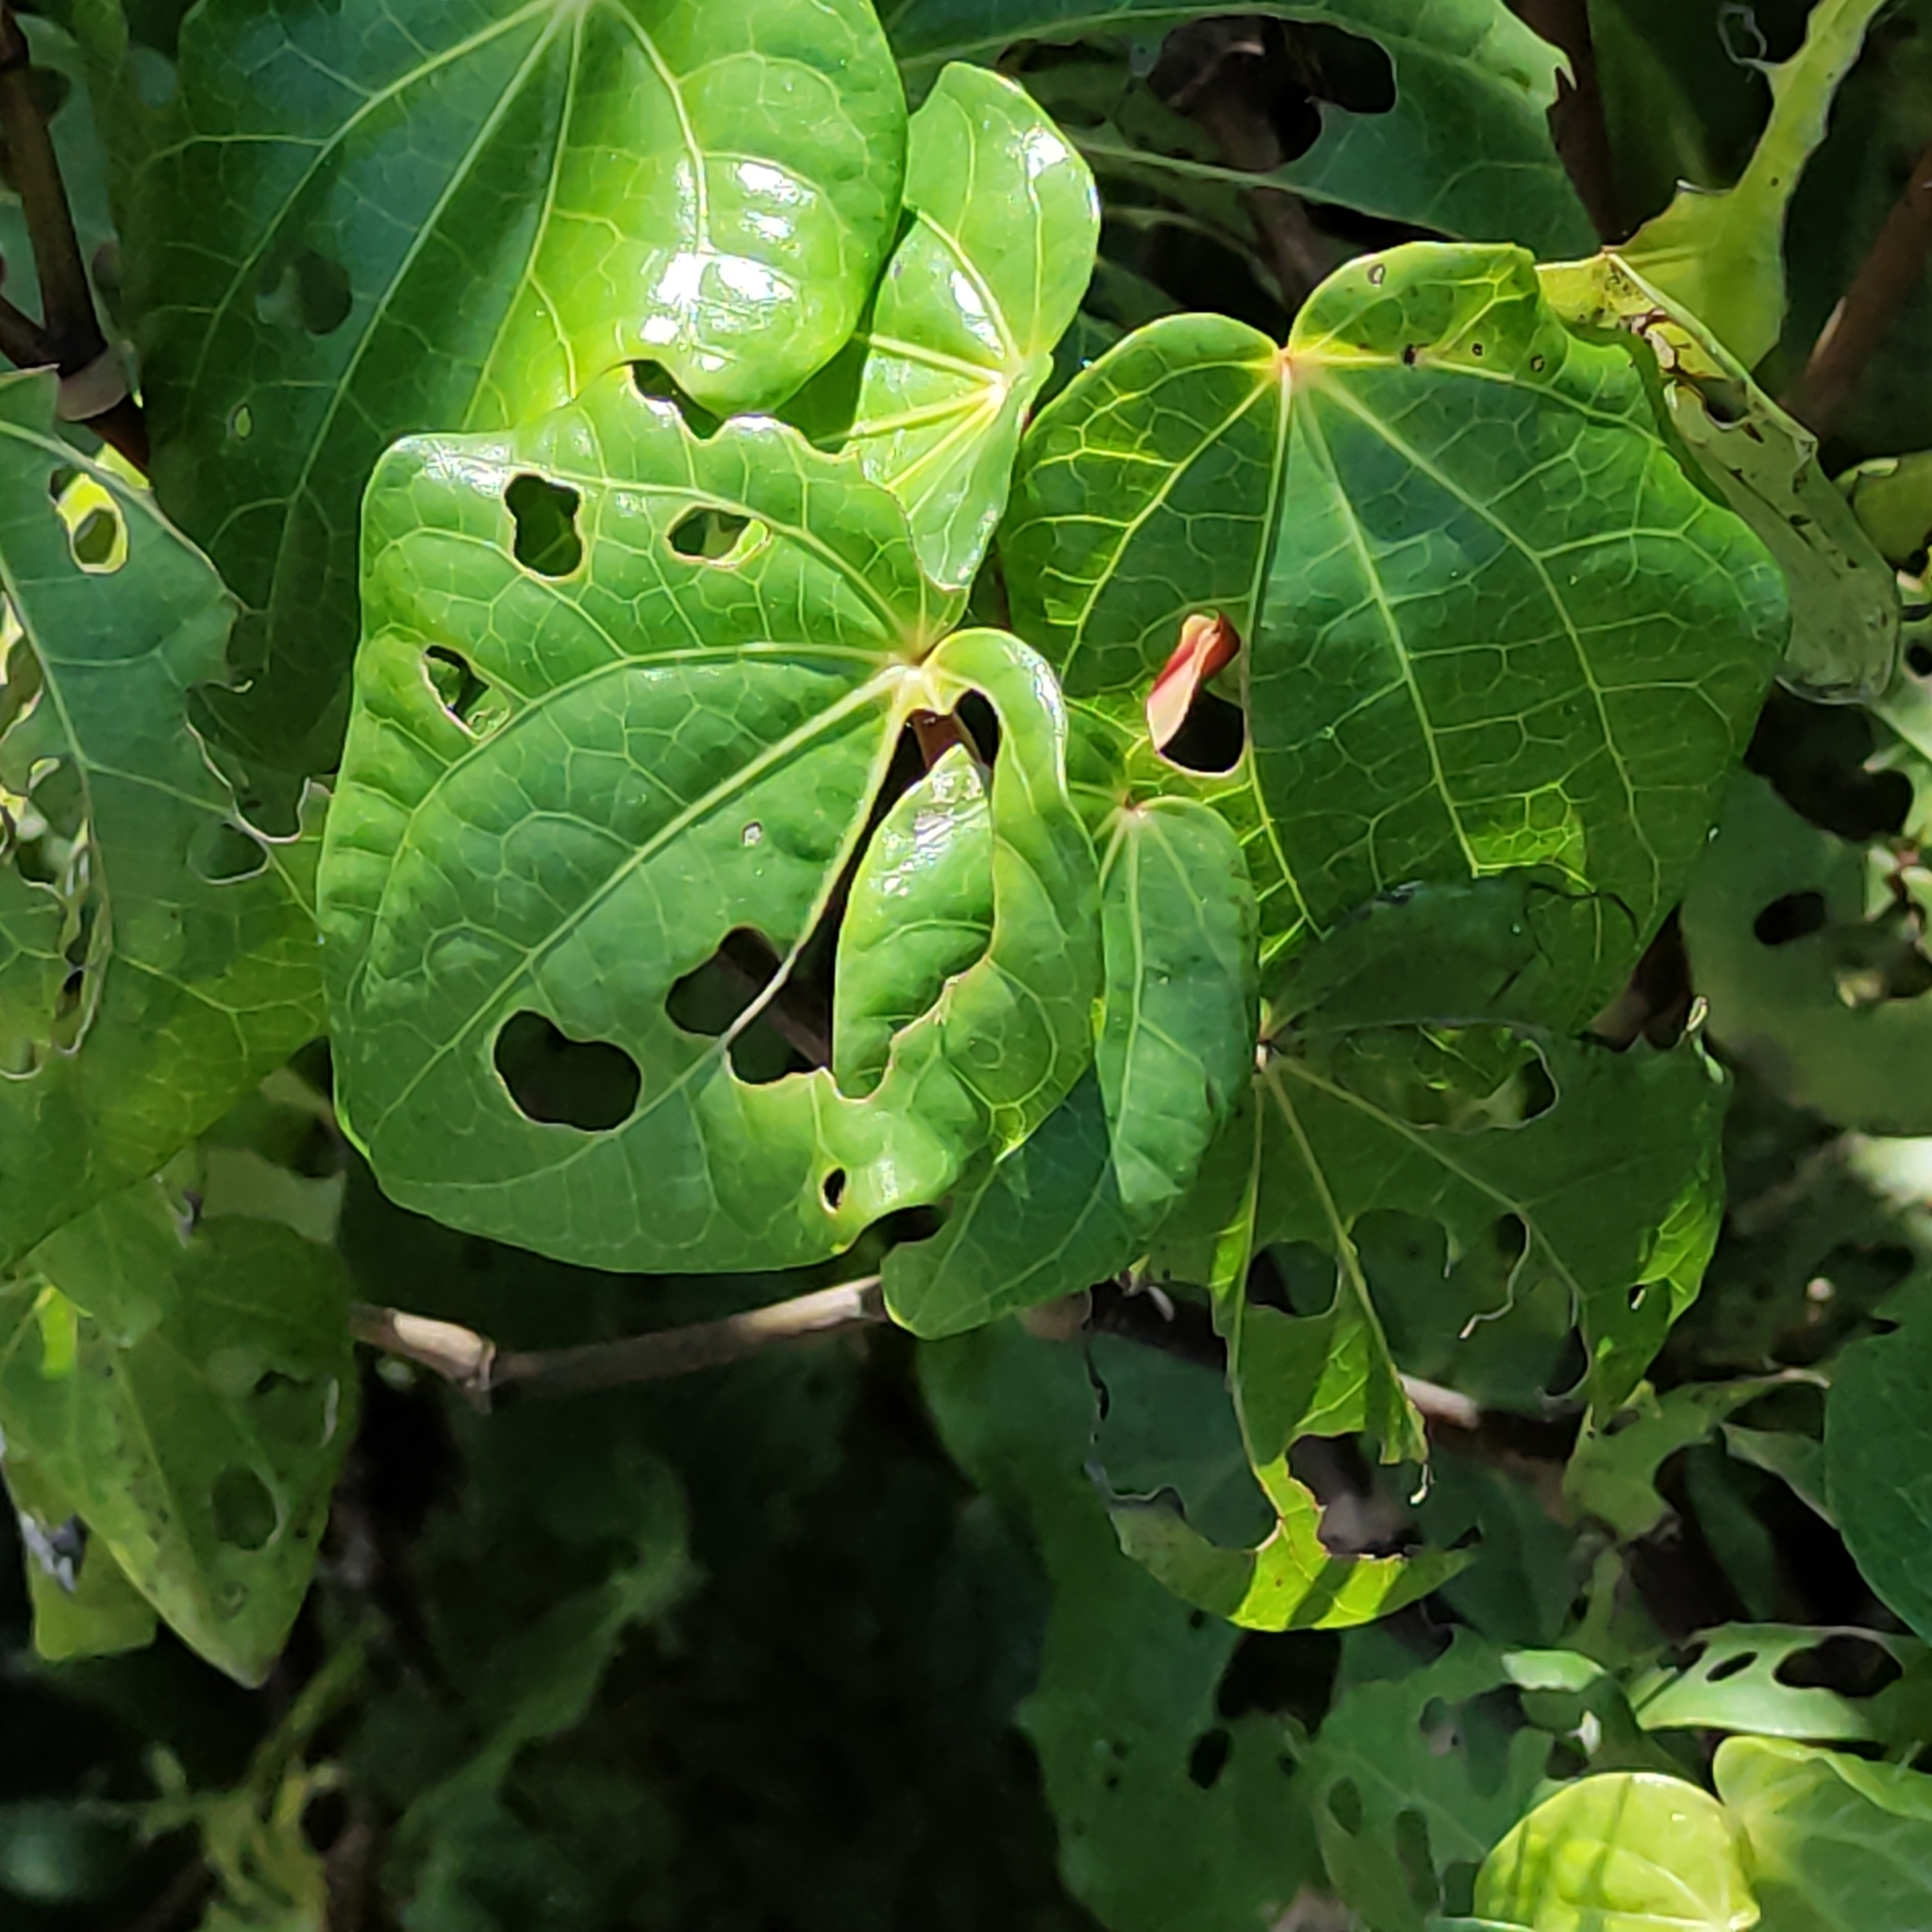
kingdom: Plantae
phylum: Tracheophyta
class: Magnoliopsida
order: Piperales
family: Piperaceae
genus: Macropiper
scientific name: Macropiper excelsum
